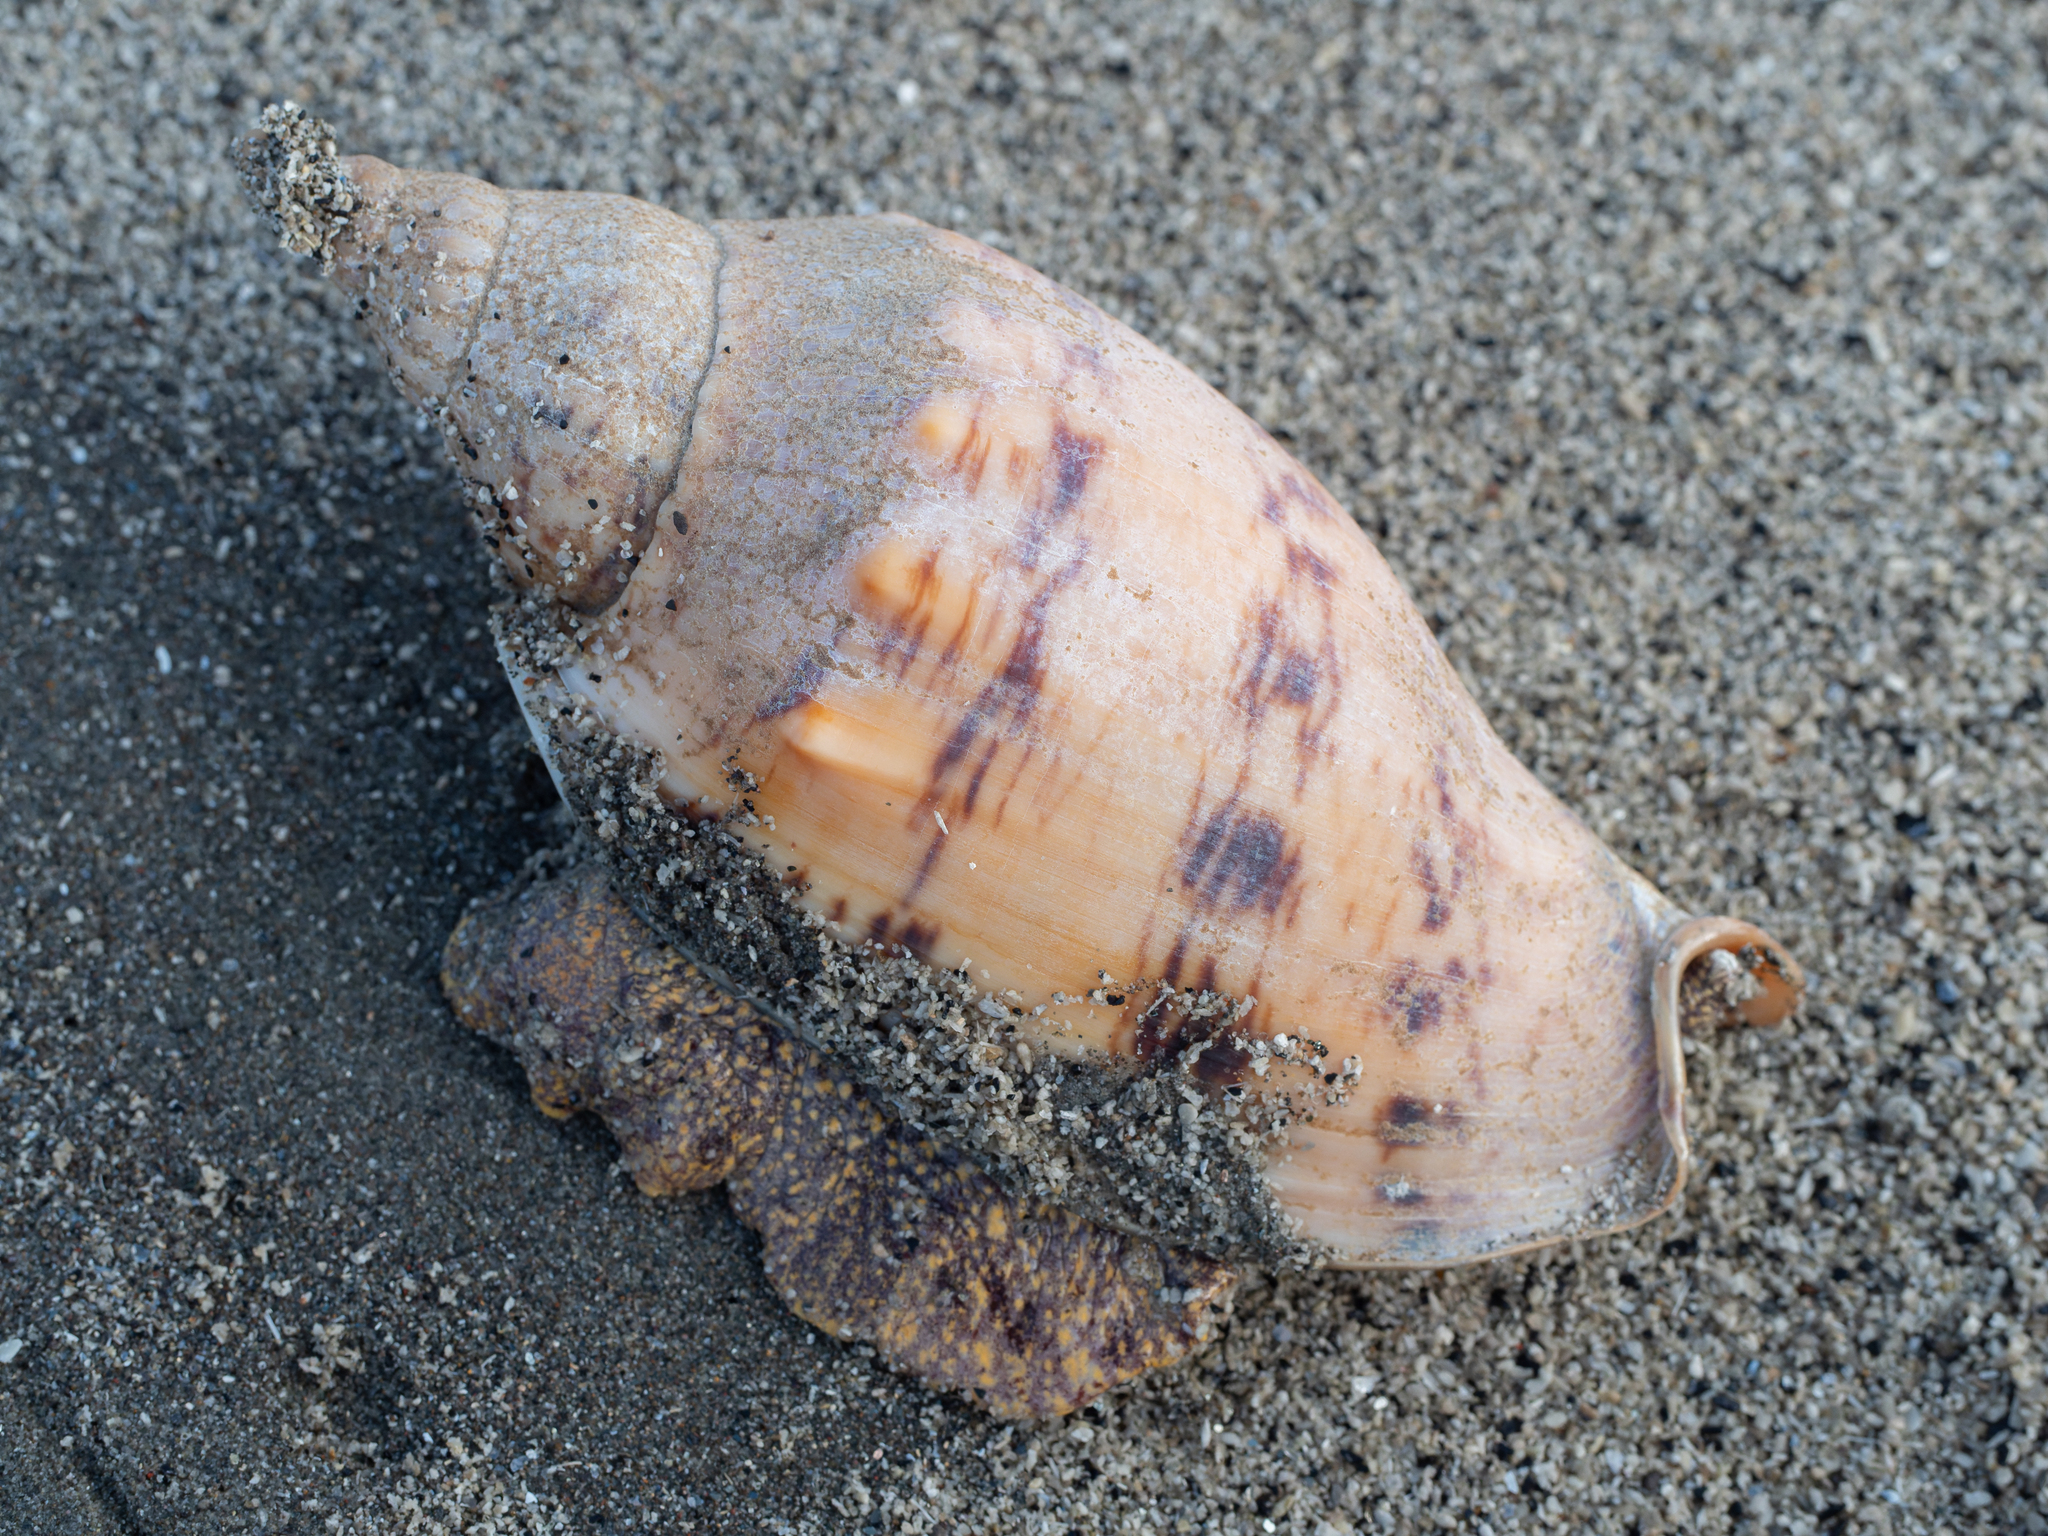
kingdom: Animalia
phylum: Mollusca
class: Gastropoda
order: Neogastropoda
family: Volutidae
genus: Alcithoe
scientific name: Alcithoe arabica
